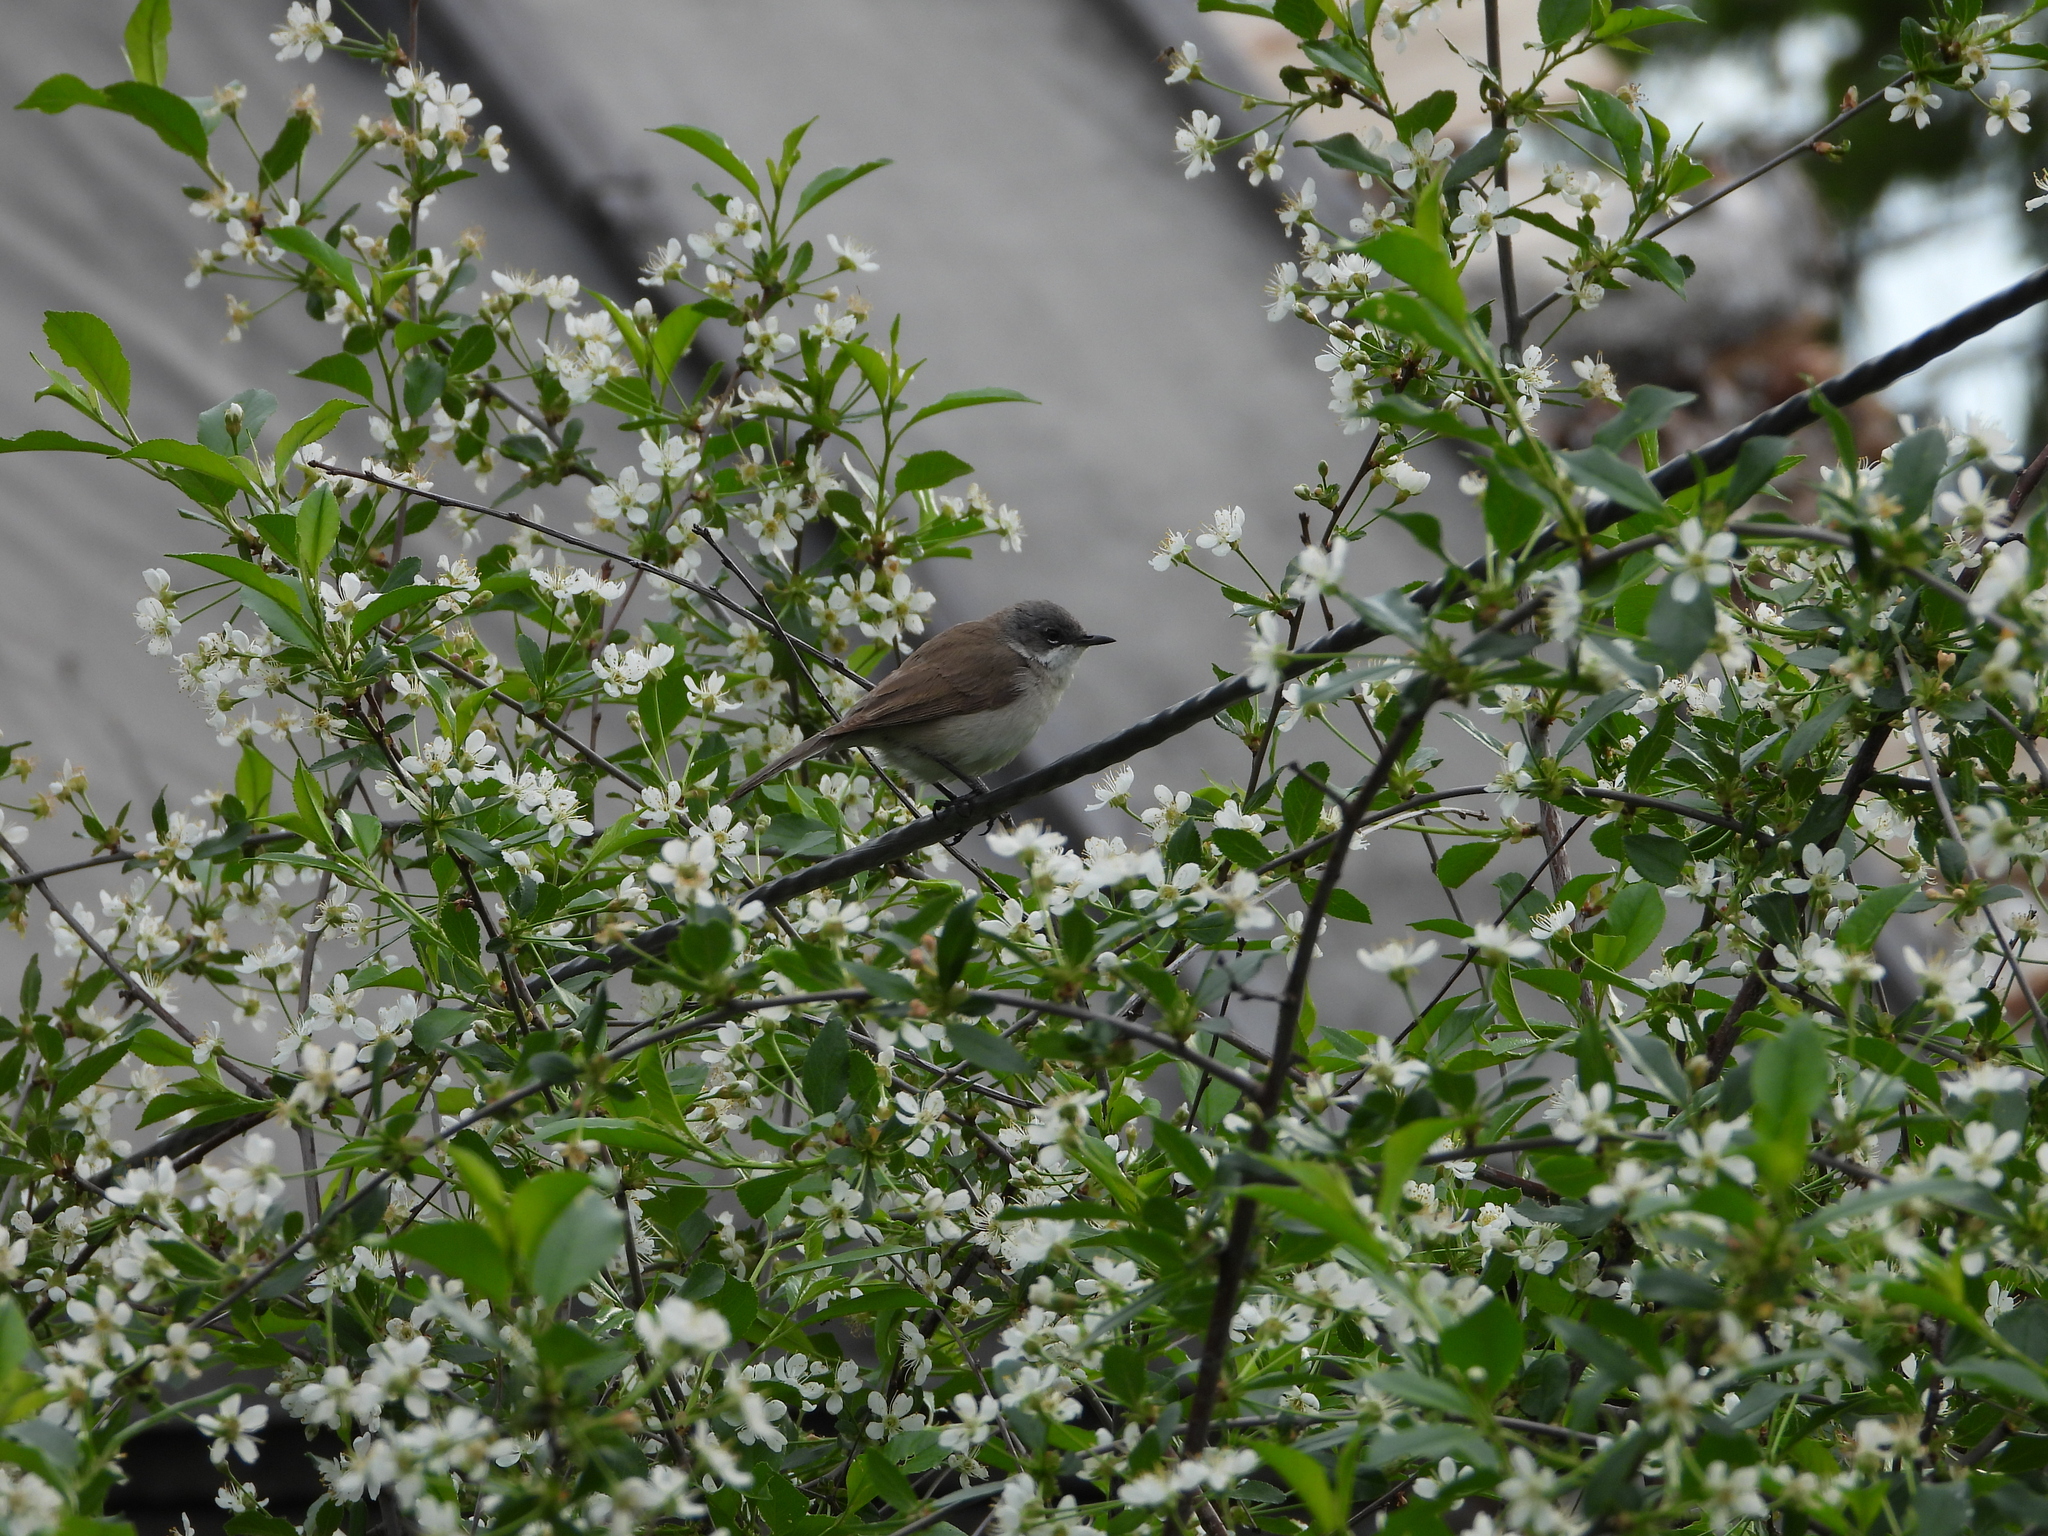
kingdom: Animalia
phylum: Chordata
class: Aves
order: Passeriformes
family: Sylviidae
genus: Sylvia
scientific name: Sylvia communis
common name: Common whitethroat
